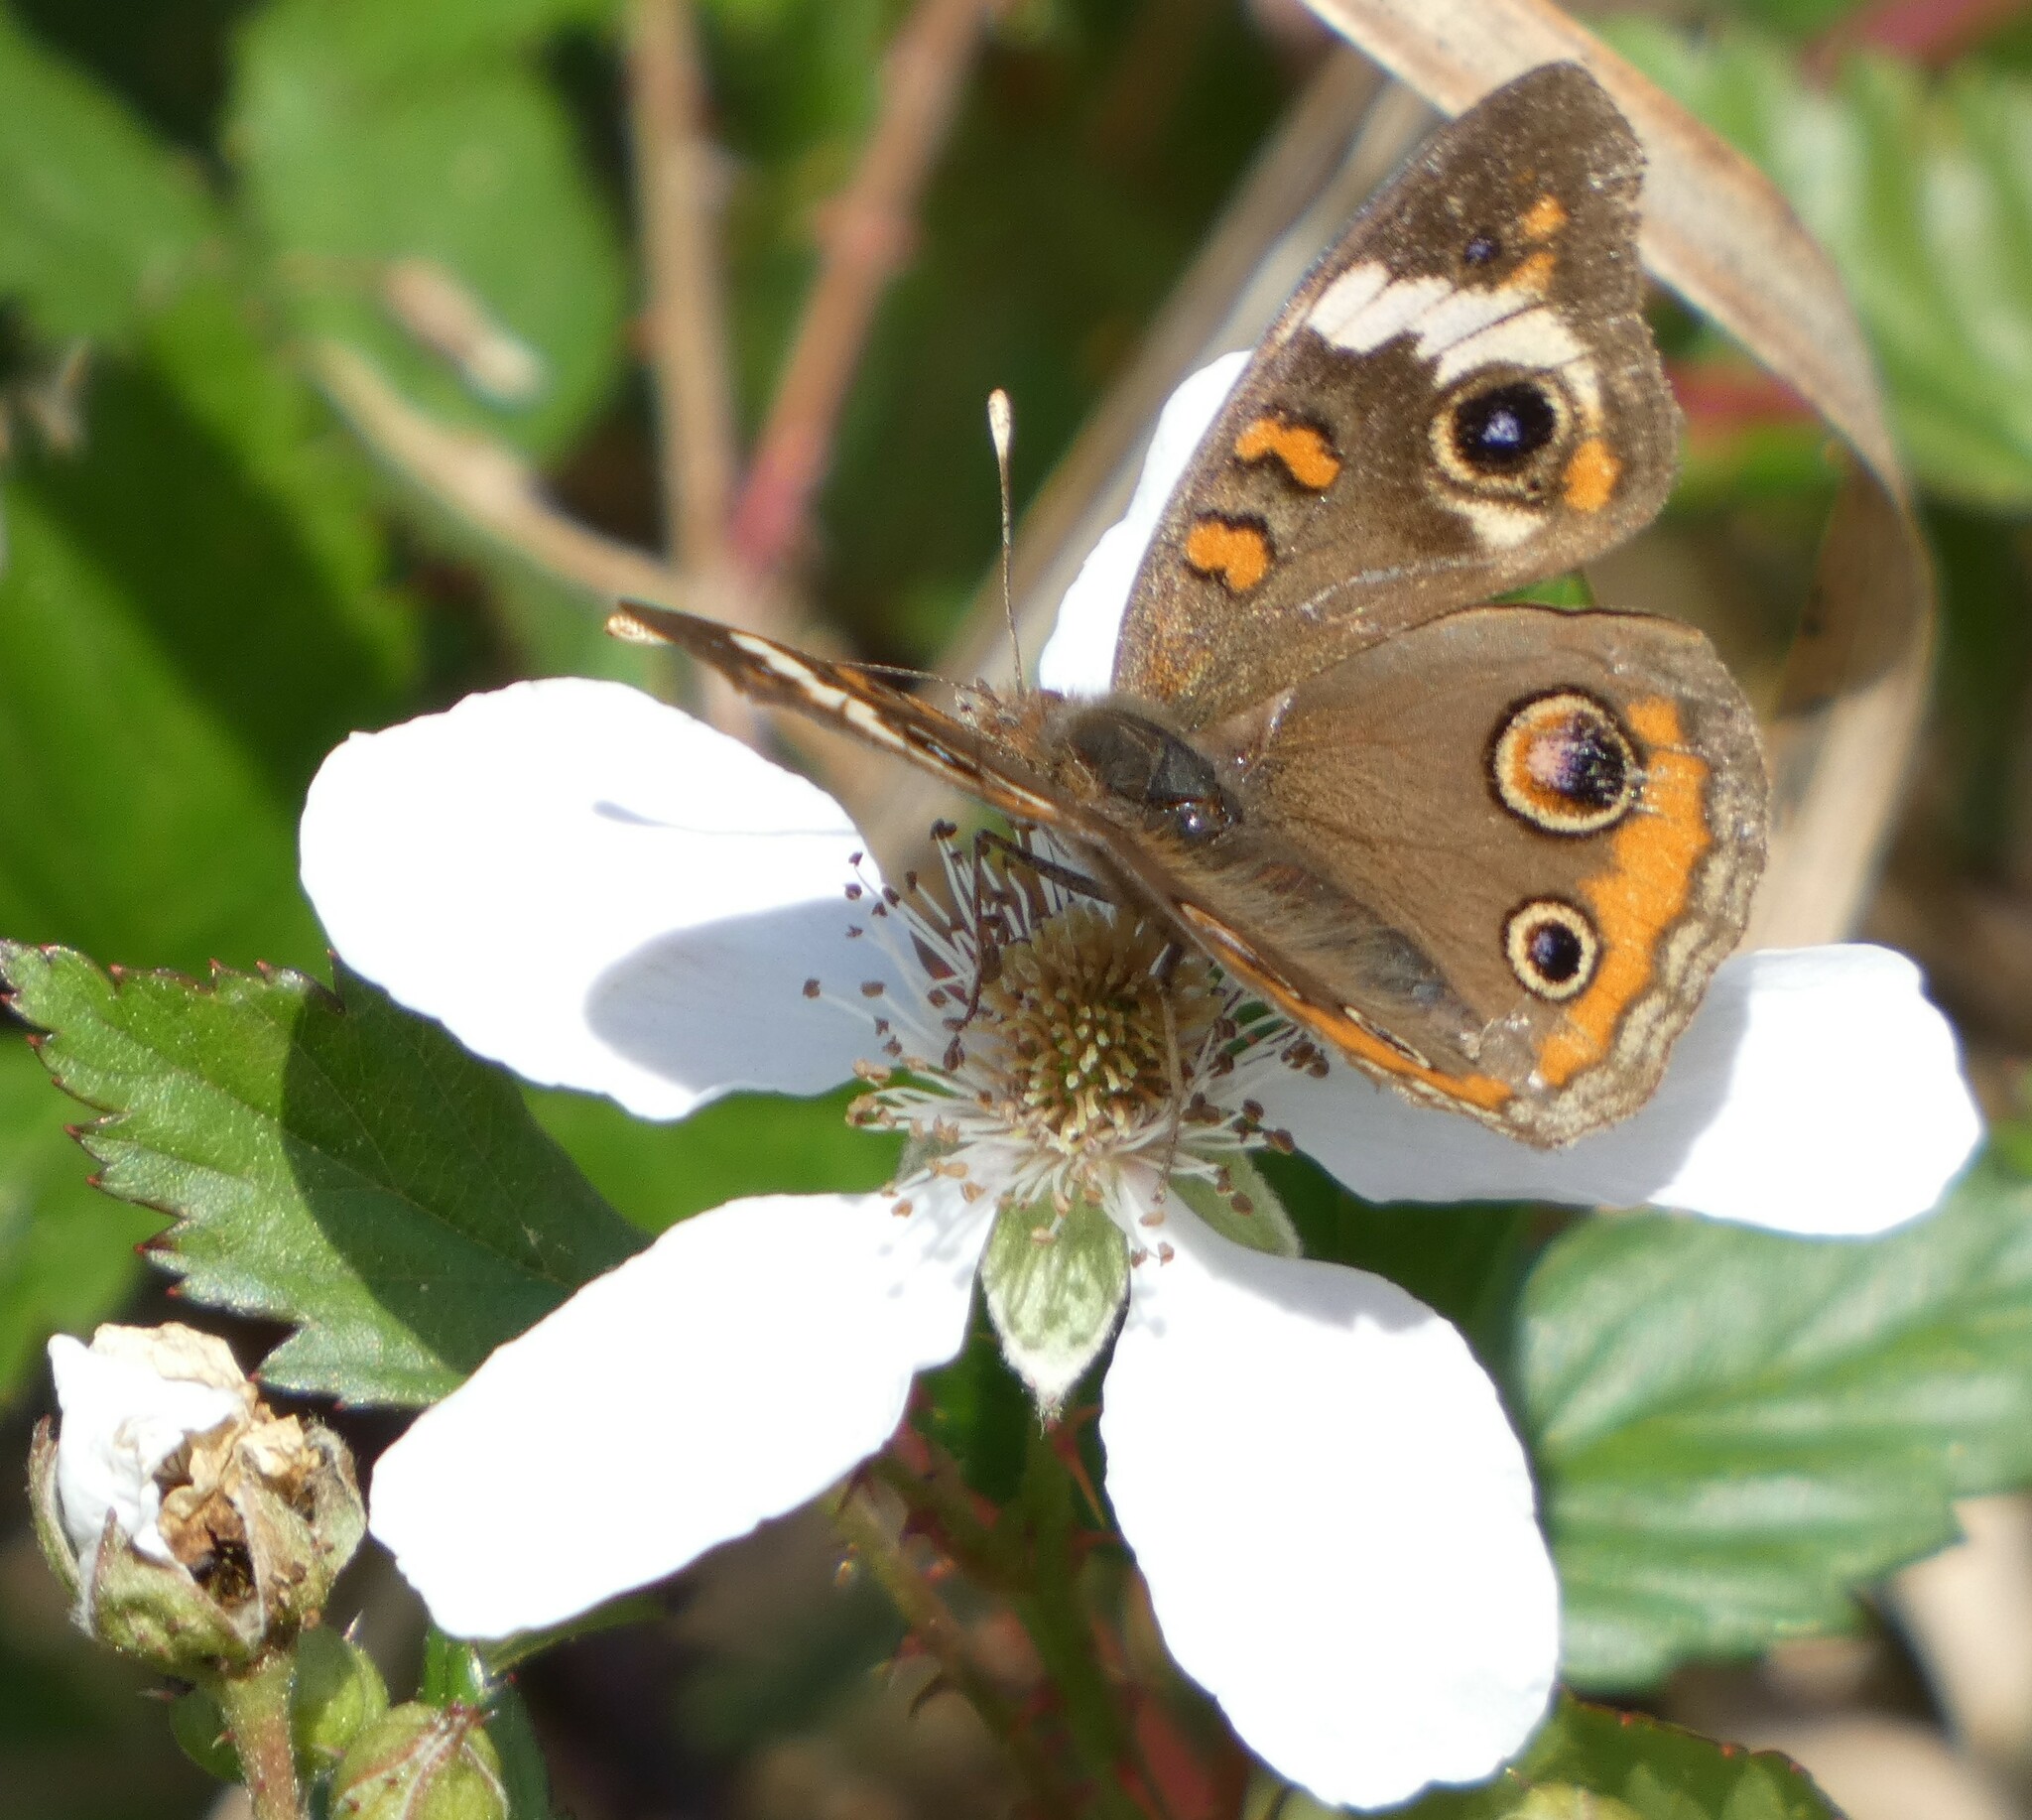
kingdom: Animalia
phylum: Arthropoda
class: Insecta
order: Lepidoptera
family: Nymphalidae
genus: Junonia
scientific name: Junonia coenia
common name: Common buckeye
